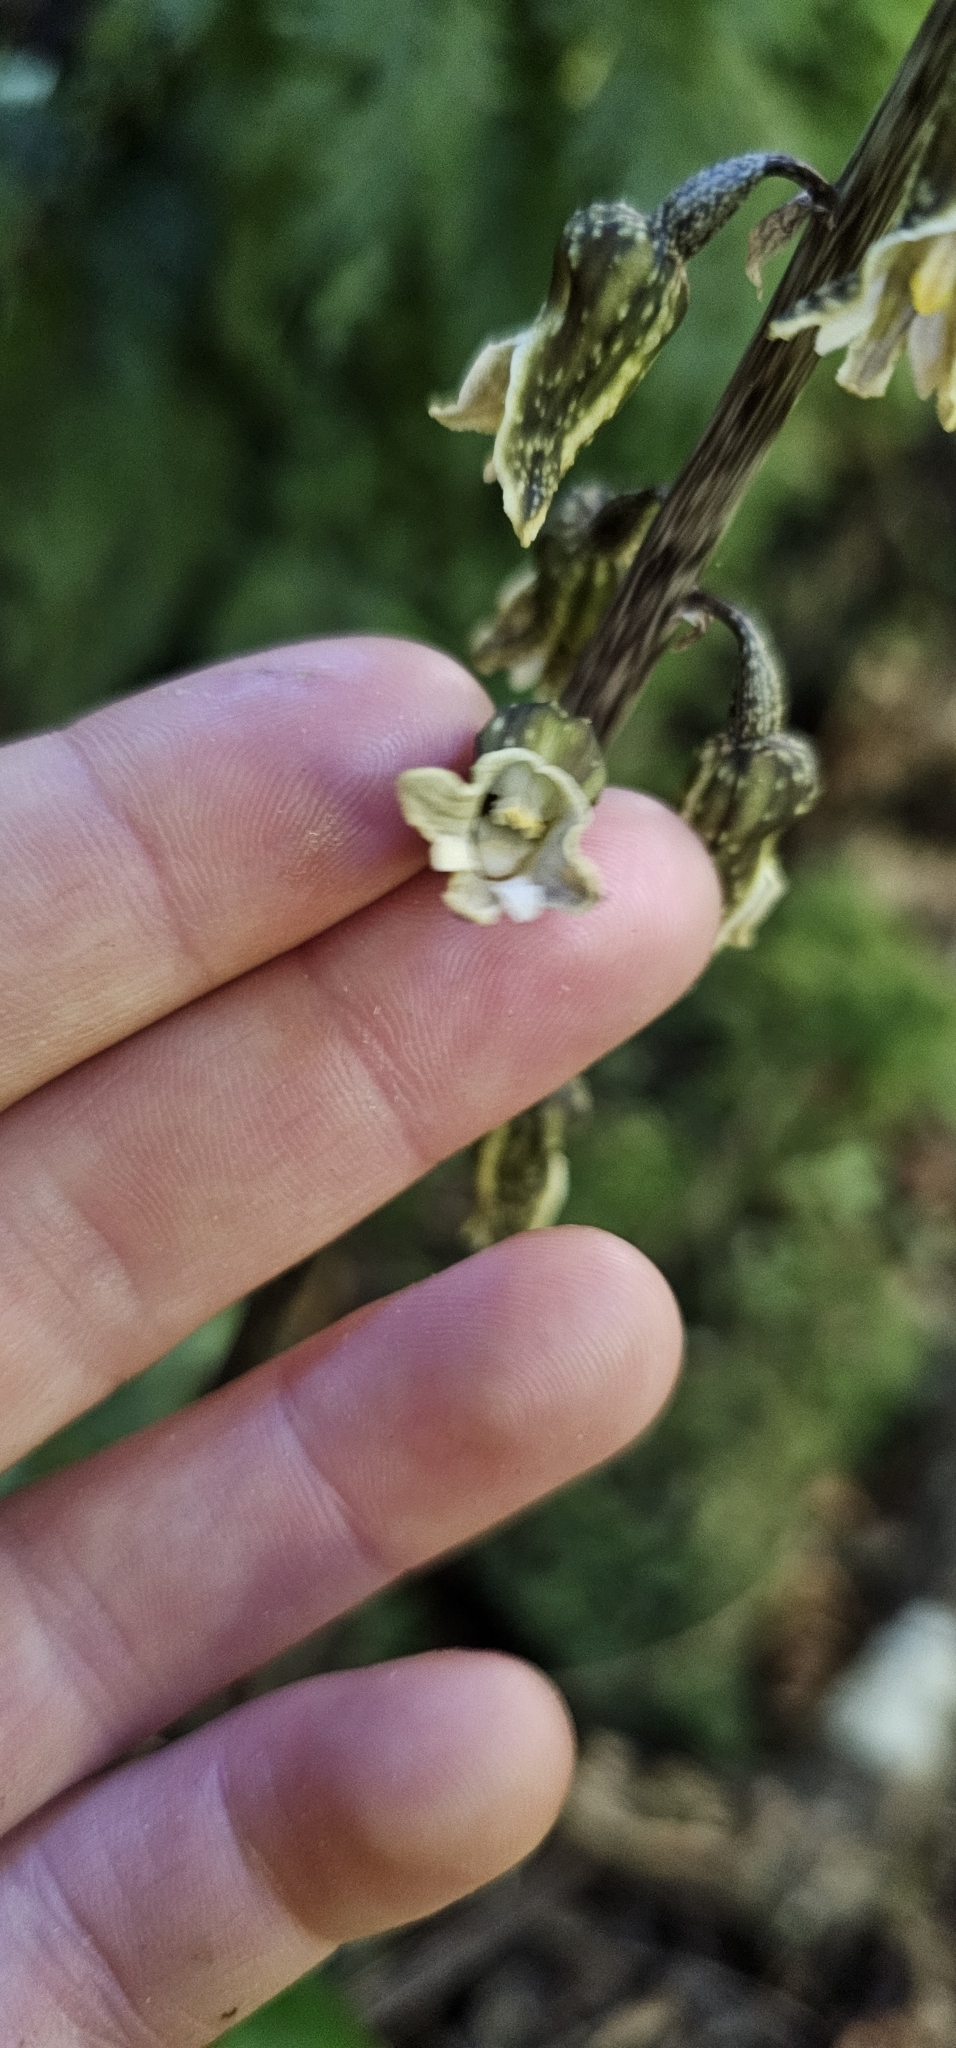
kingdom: Plantae
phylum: Tracheophyta
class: Liliopsida
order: Asparagales
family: Orchidaceae
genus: Gastrodia
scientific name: Gastrodia molloyi
